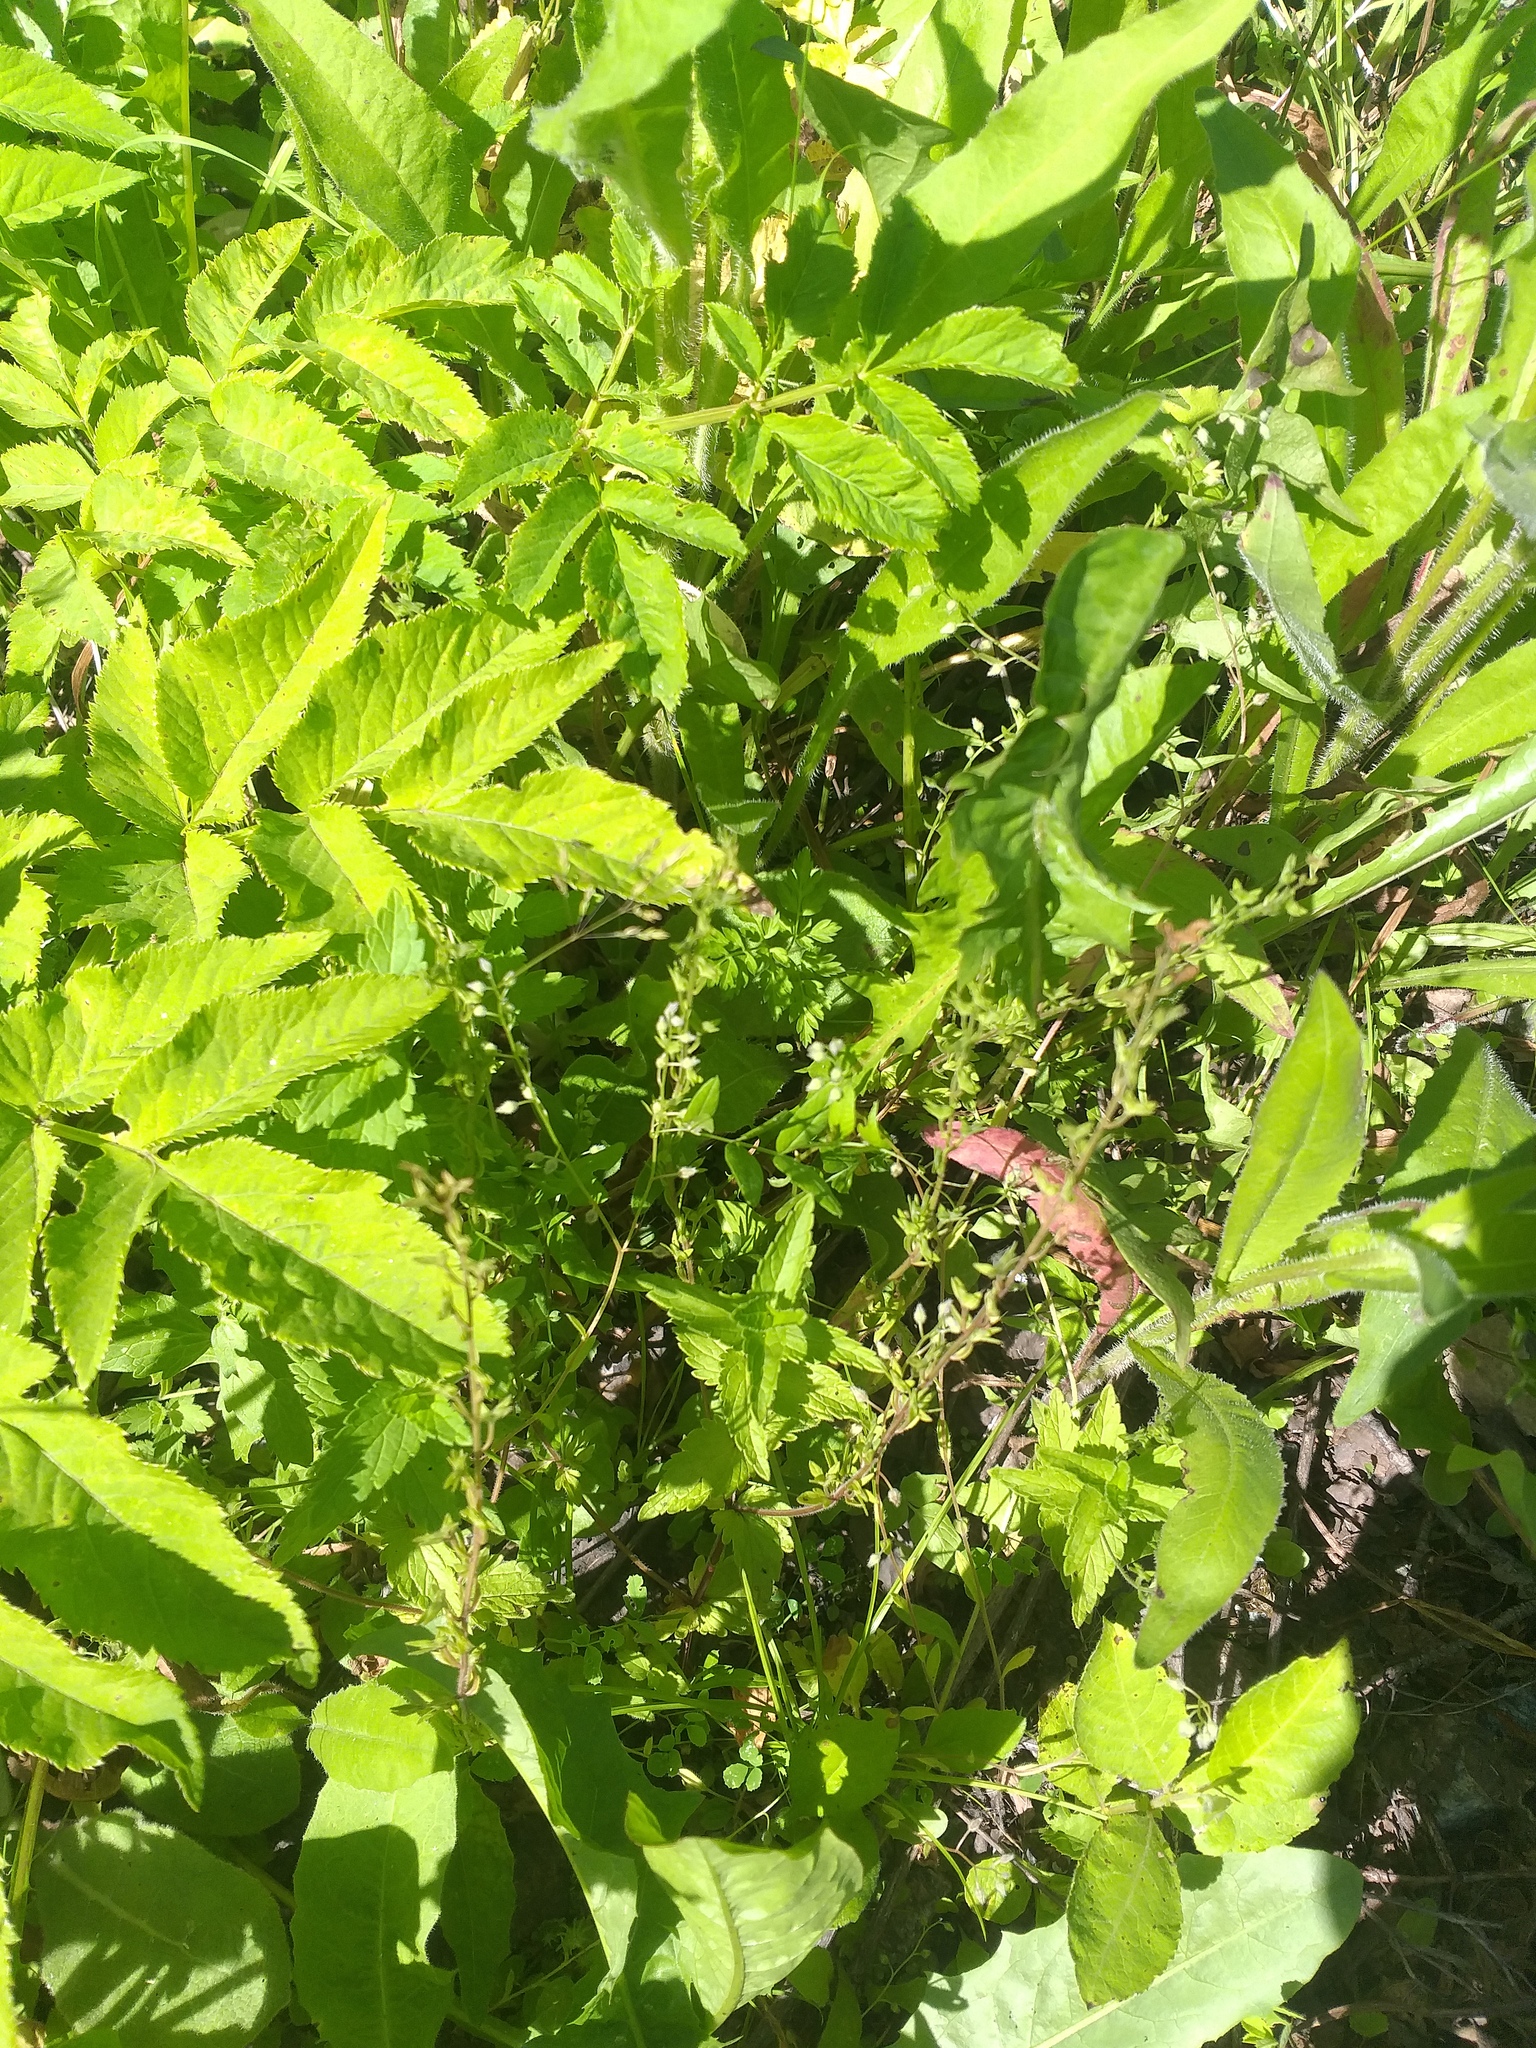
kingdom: Plantae
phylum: Tracheophyta
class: Magnoliopsida
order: Lamiales
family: Plantaginaceae
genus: Veronica
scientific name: Veronica chamaedrys
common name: Germander speedwell
